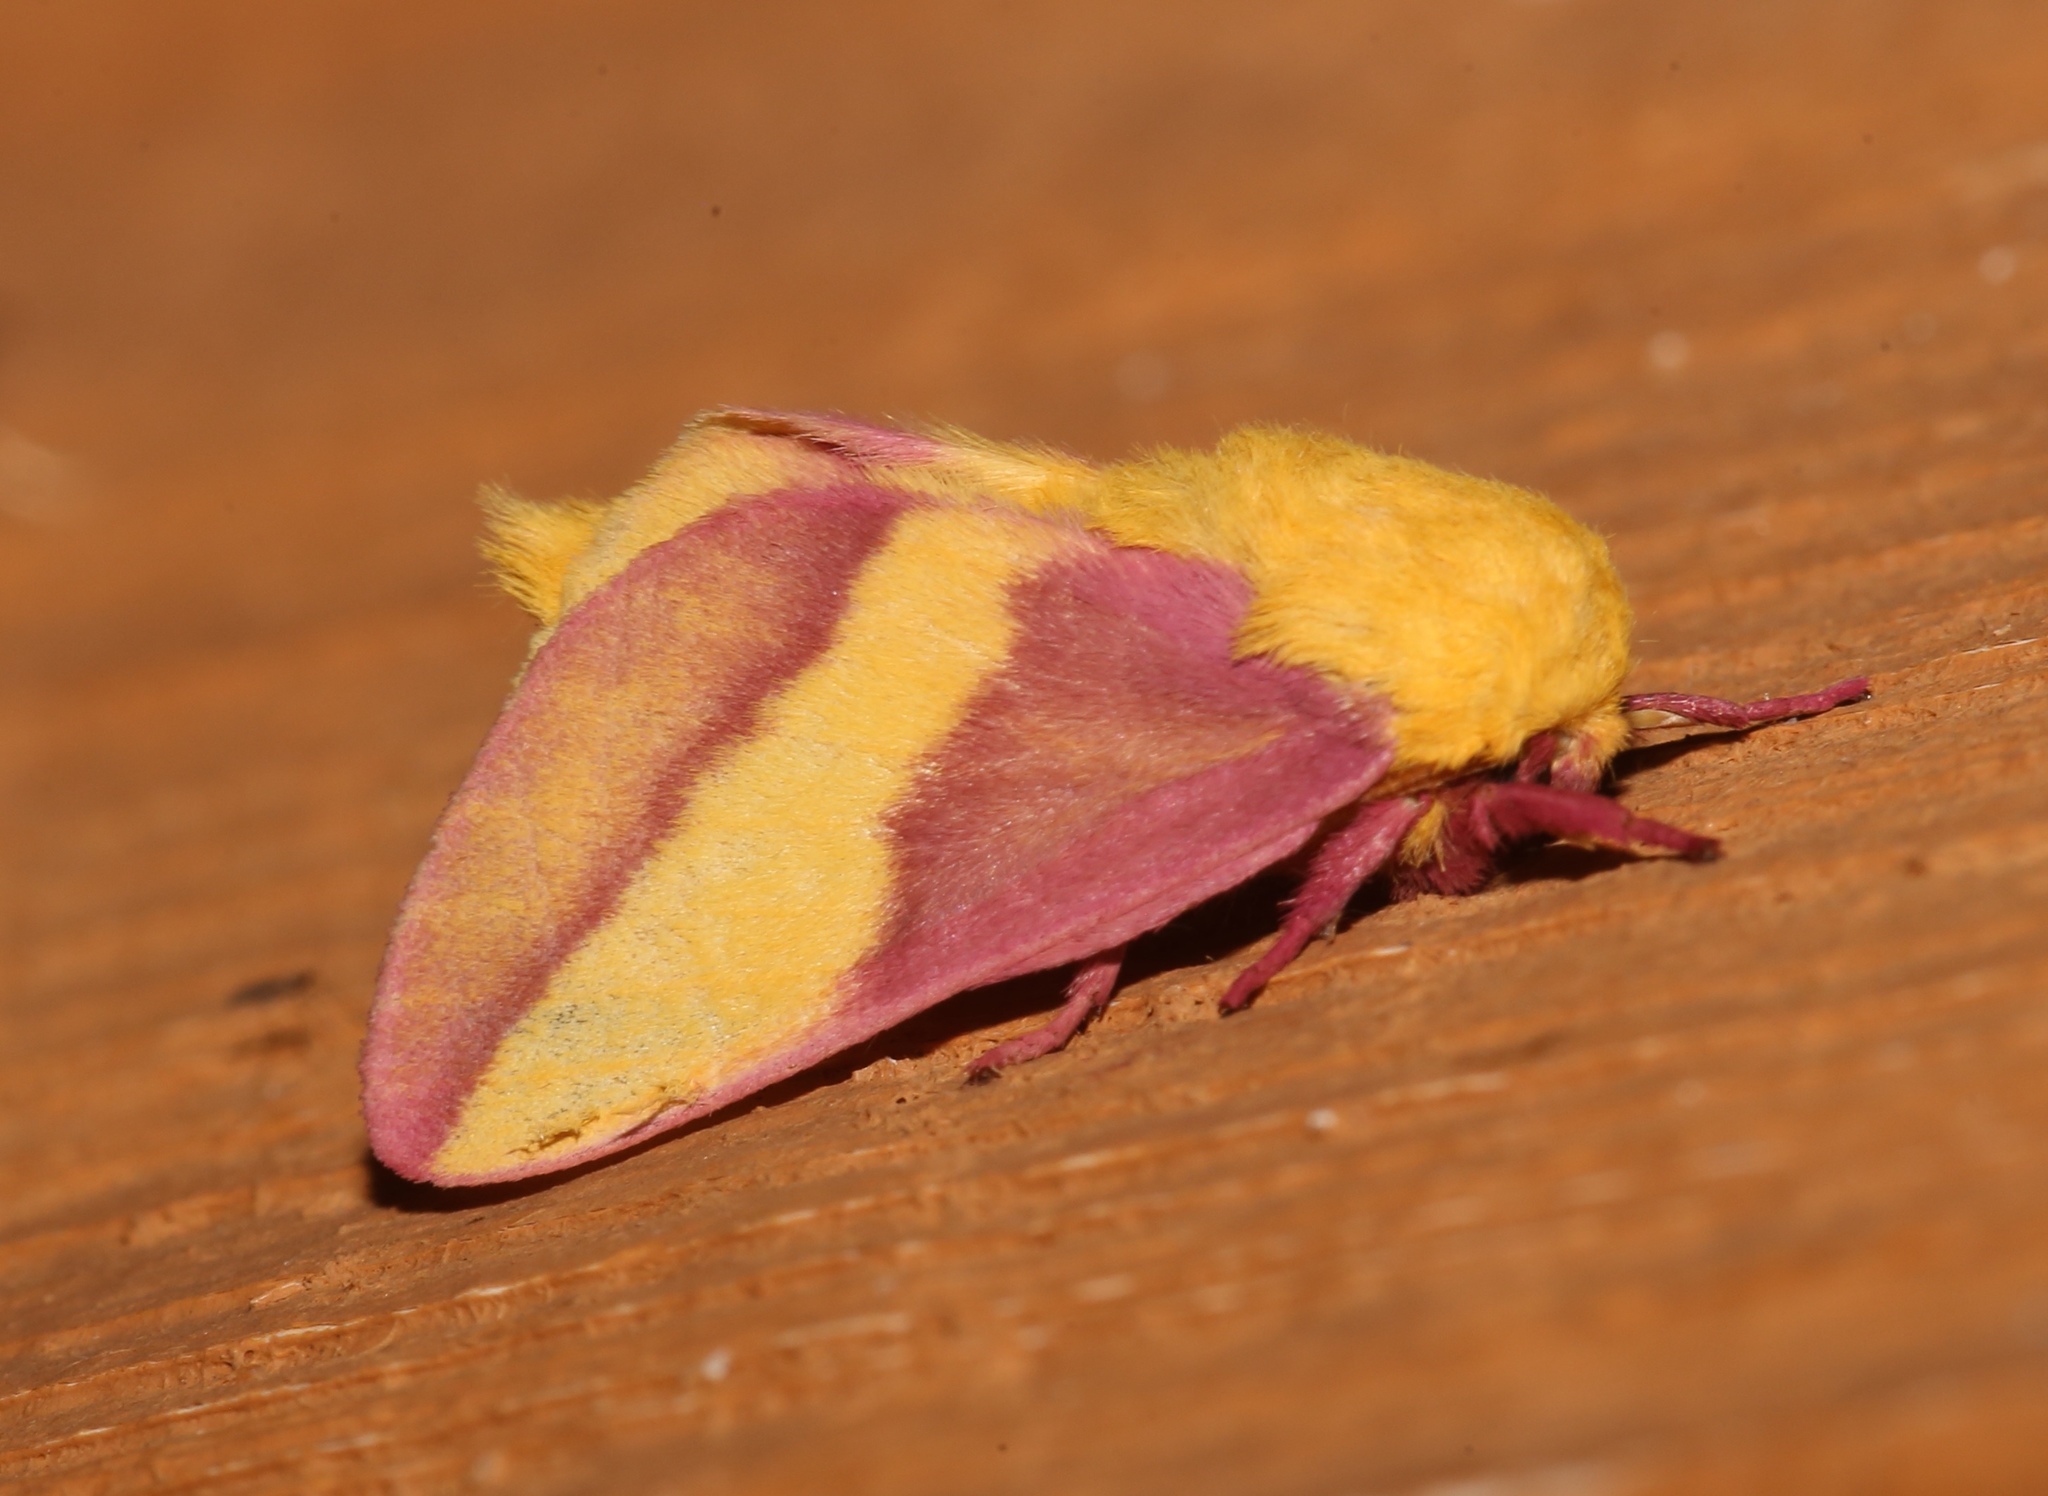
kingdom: Animalia
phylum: Arthropoda
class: Insecta
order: Lepidoptera
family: Saturniidae
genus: Dryocampa
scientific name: Dryocampa rubicunda
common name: Rosy maple moth
